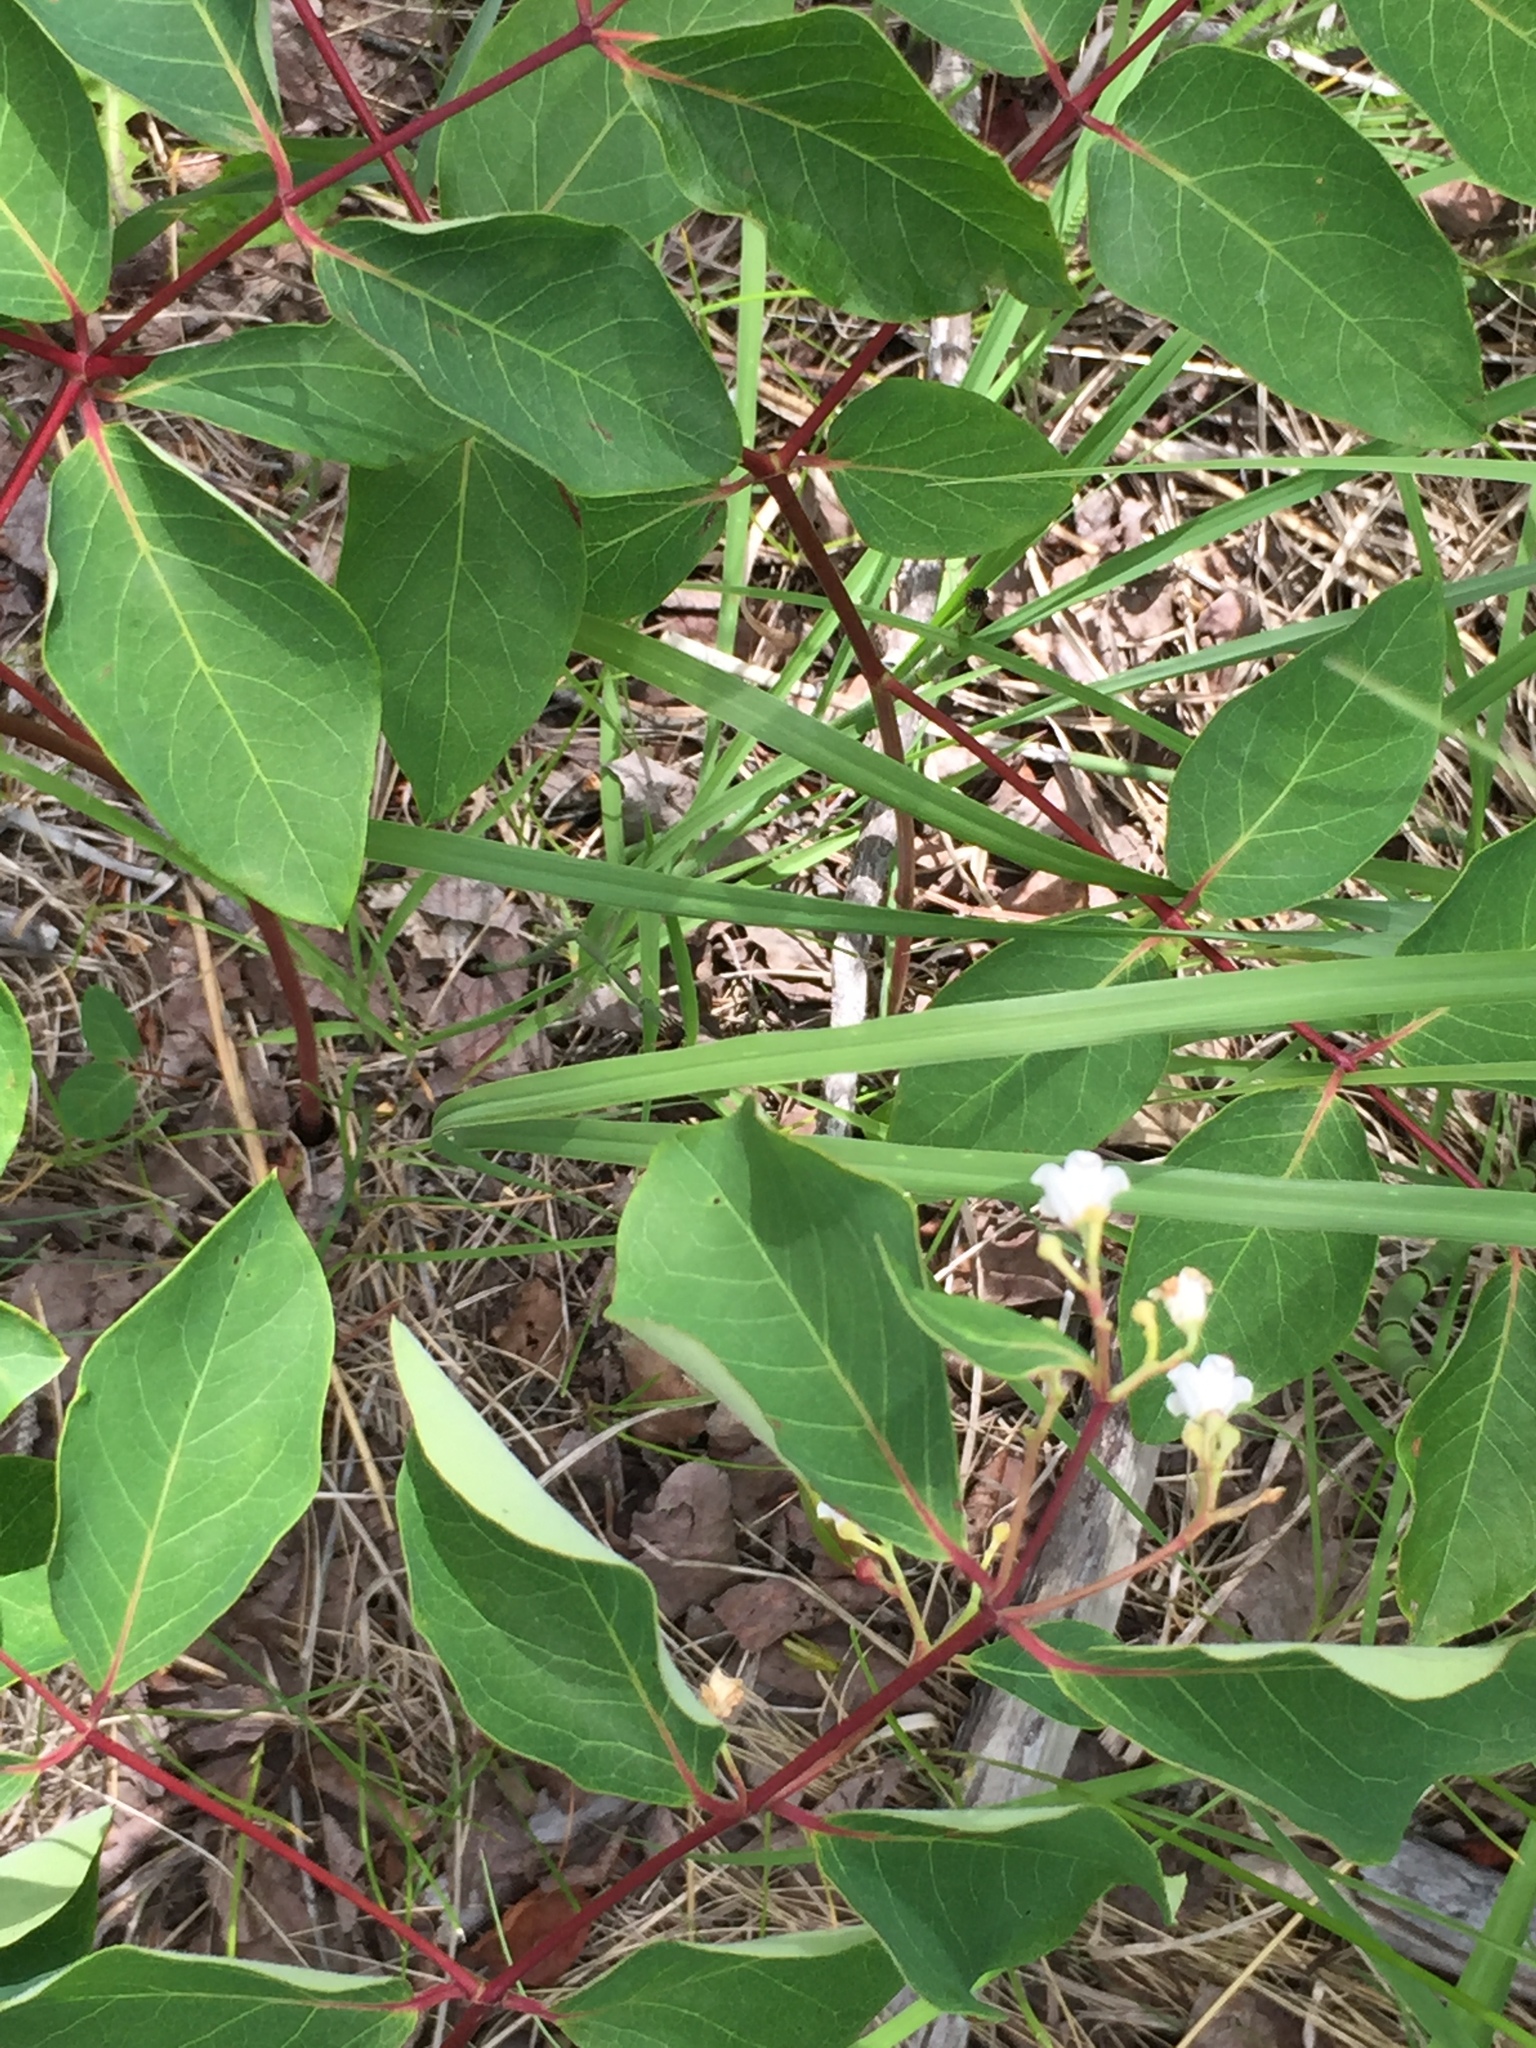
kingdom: Plantae
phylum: Tracheophyta
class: Magnoliopsida
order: Gentianales
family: Apocynaceae
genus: Apocynum
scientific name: Apocynum androsaemifolium
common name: Spreading dogbane
